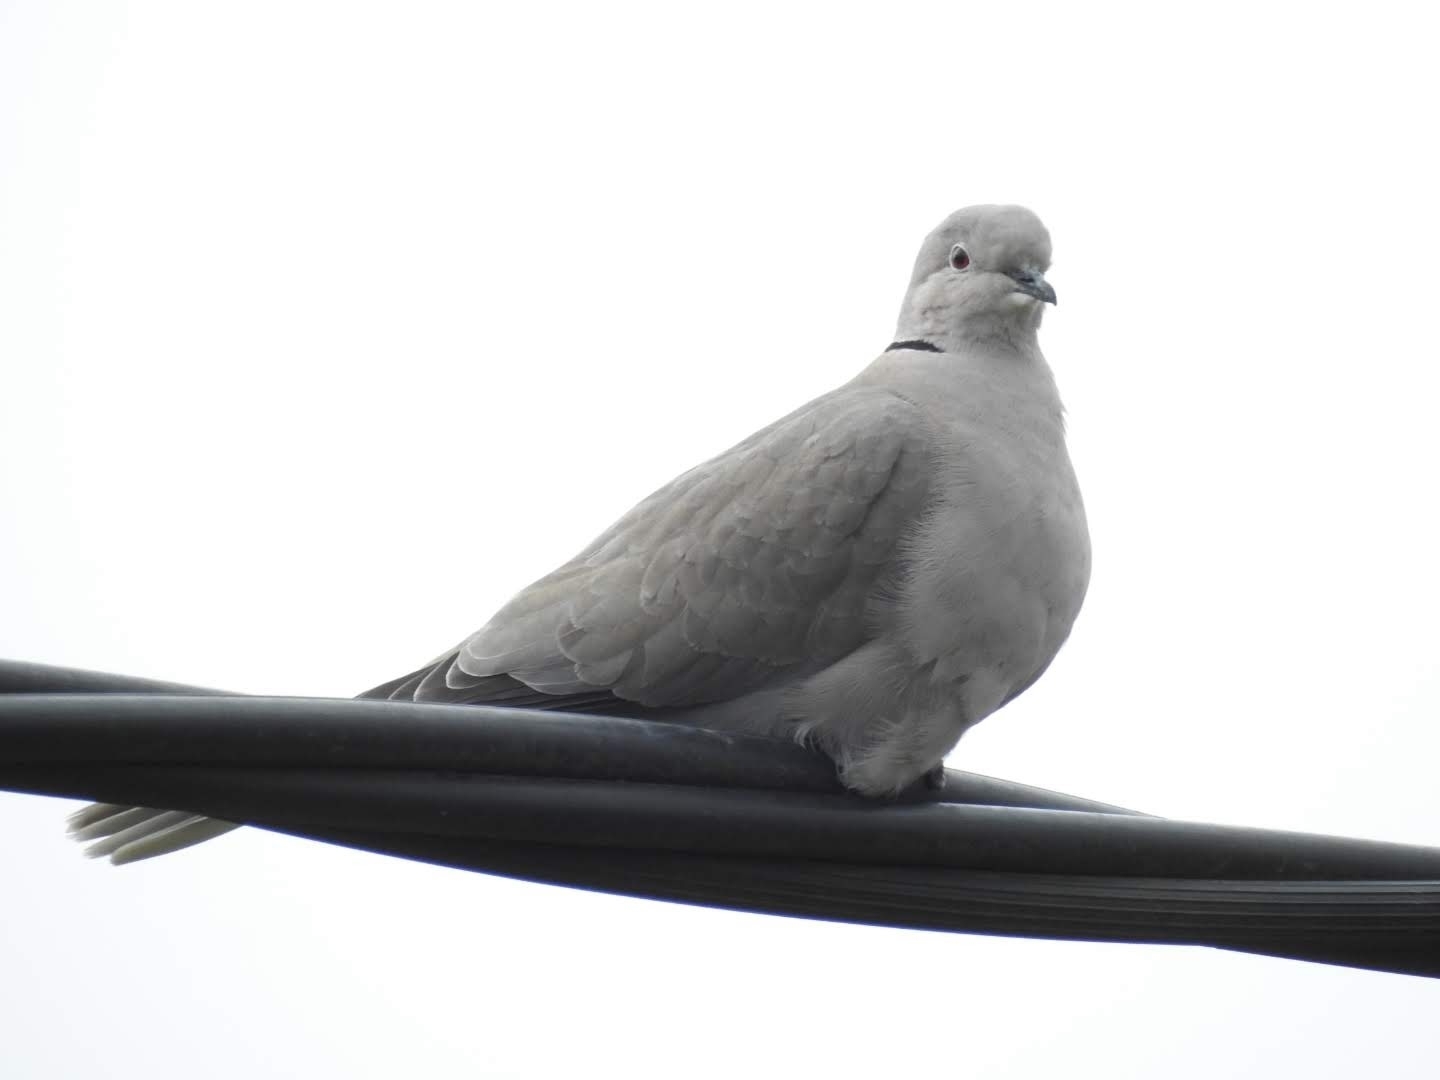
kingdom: Animalia
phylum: Chordata
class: Aves
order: Columbiformes
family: Columbidae
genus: Streptopelia
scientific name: Streptopelia decaocto
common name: Eurasian collared dove
